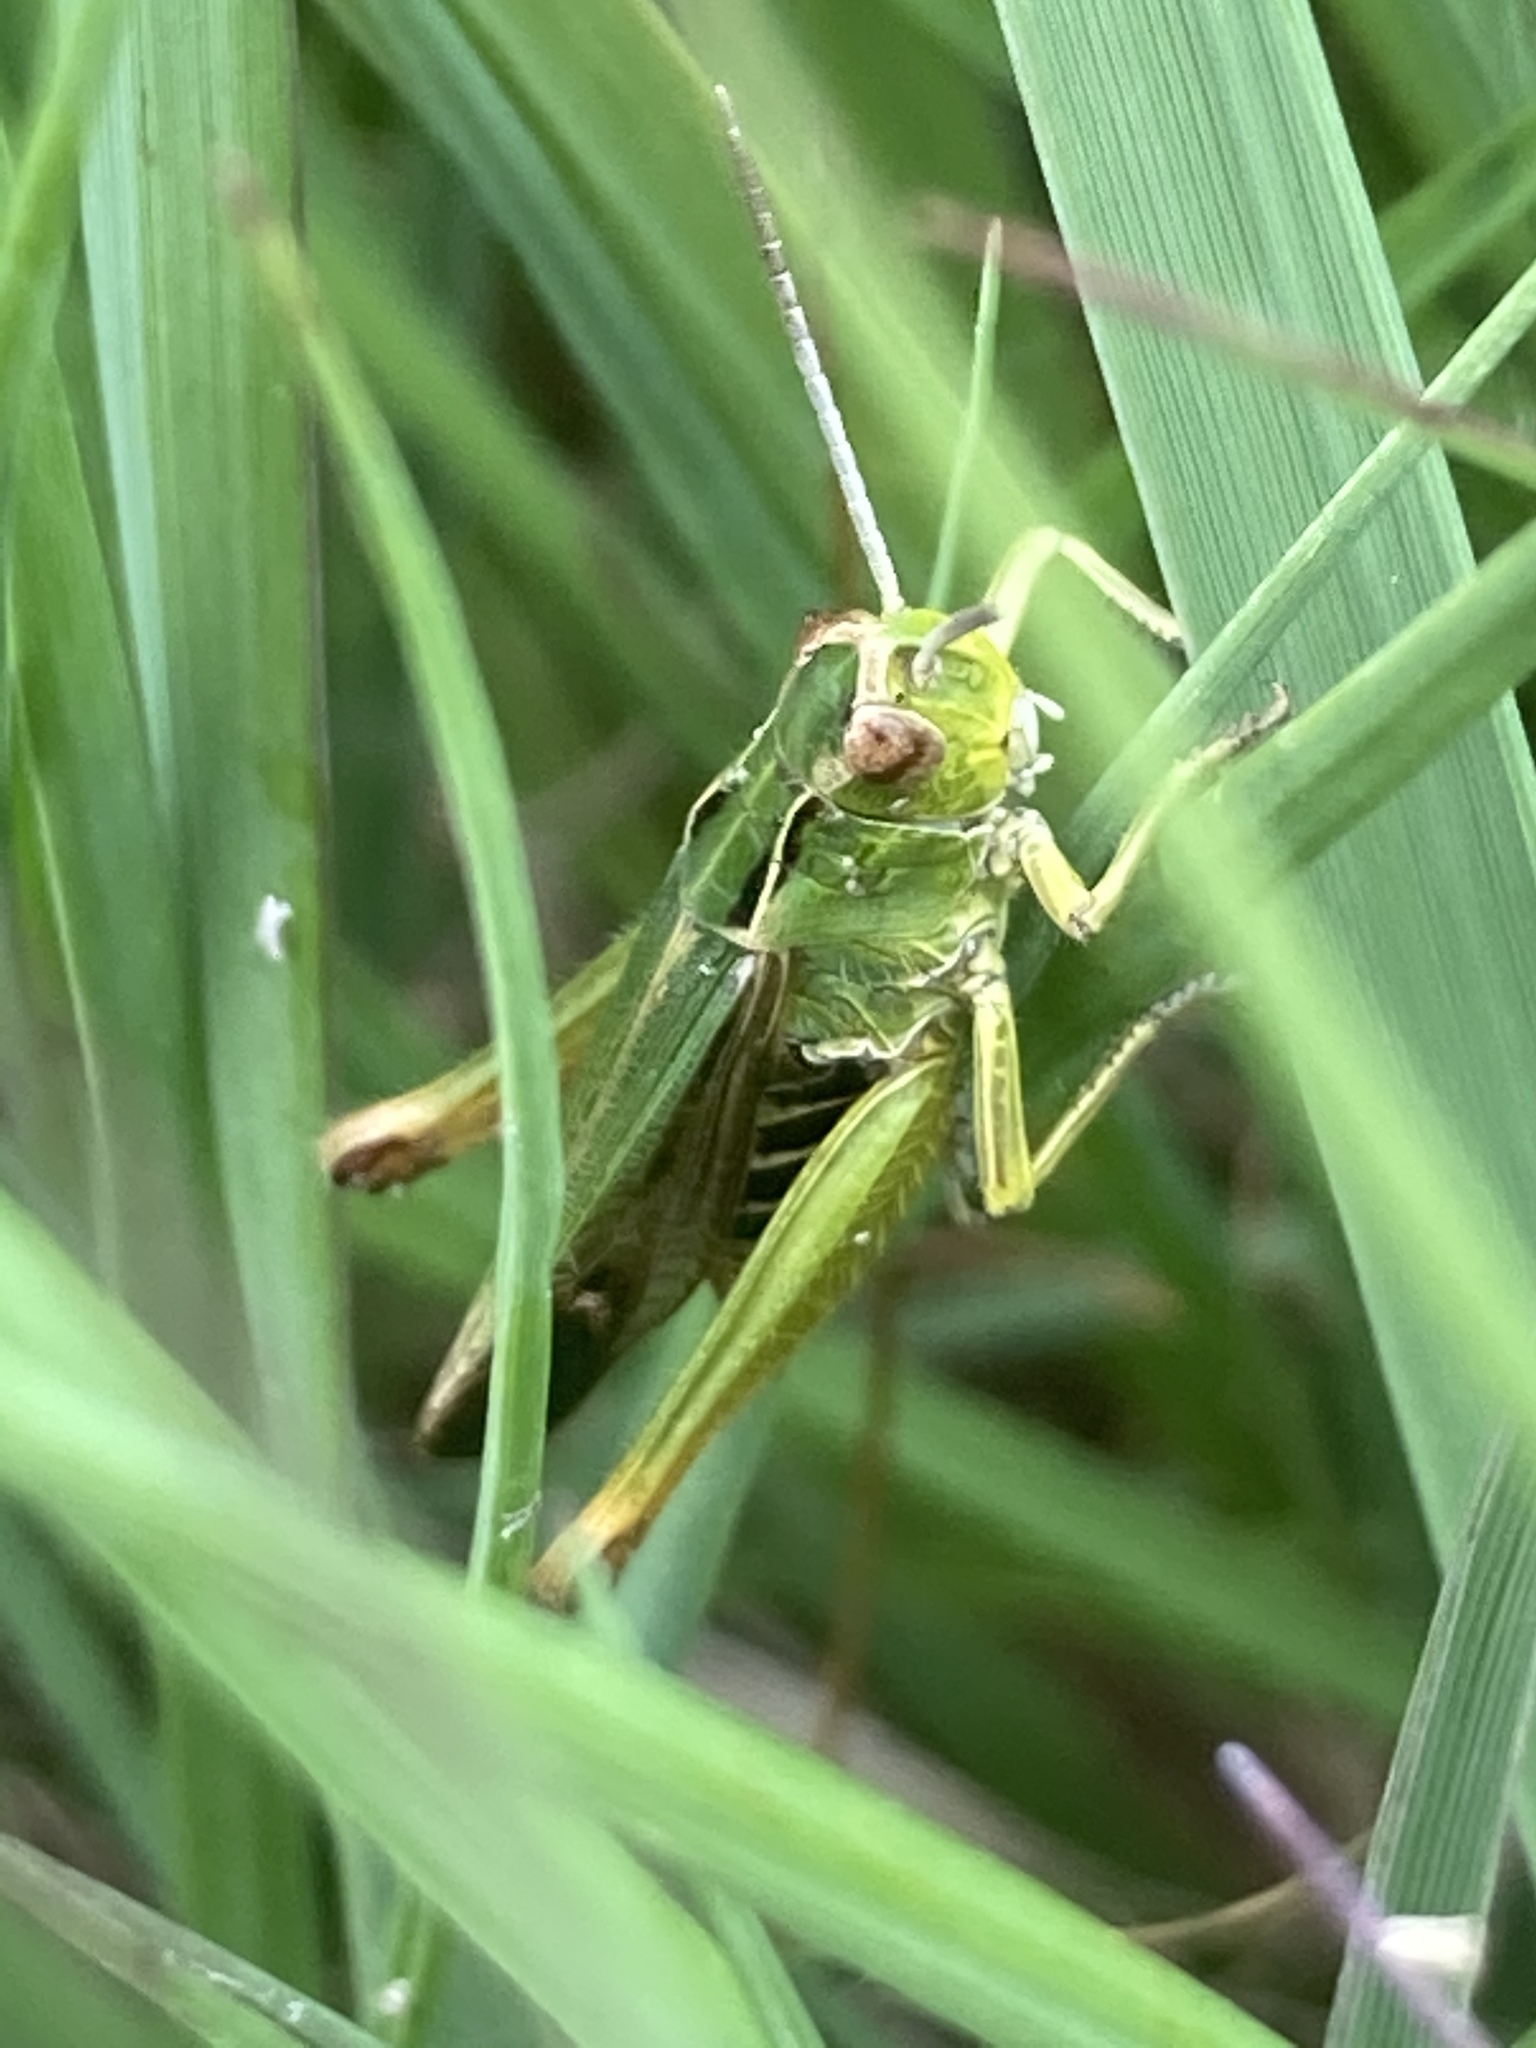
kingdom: Animalia
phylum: Arthropoda
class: Insecta
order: Orthoptera
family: Acrididae
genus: Omocestus
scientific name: Omocestus viridulus
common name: Common green grasshopper
